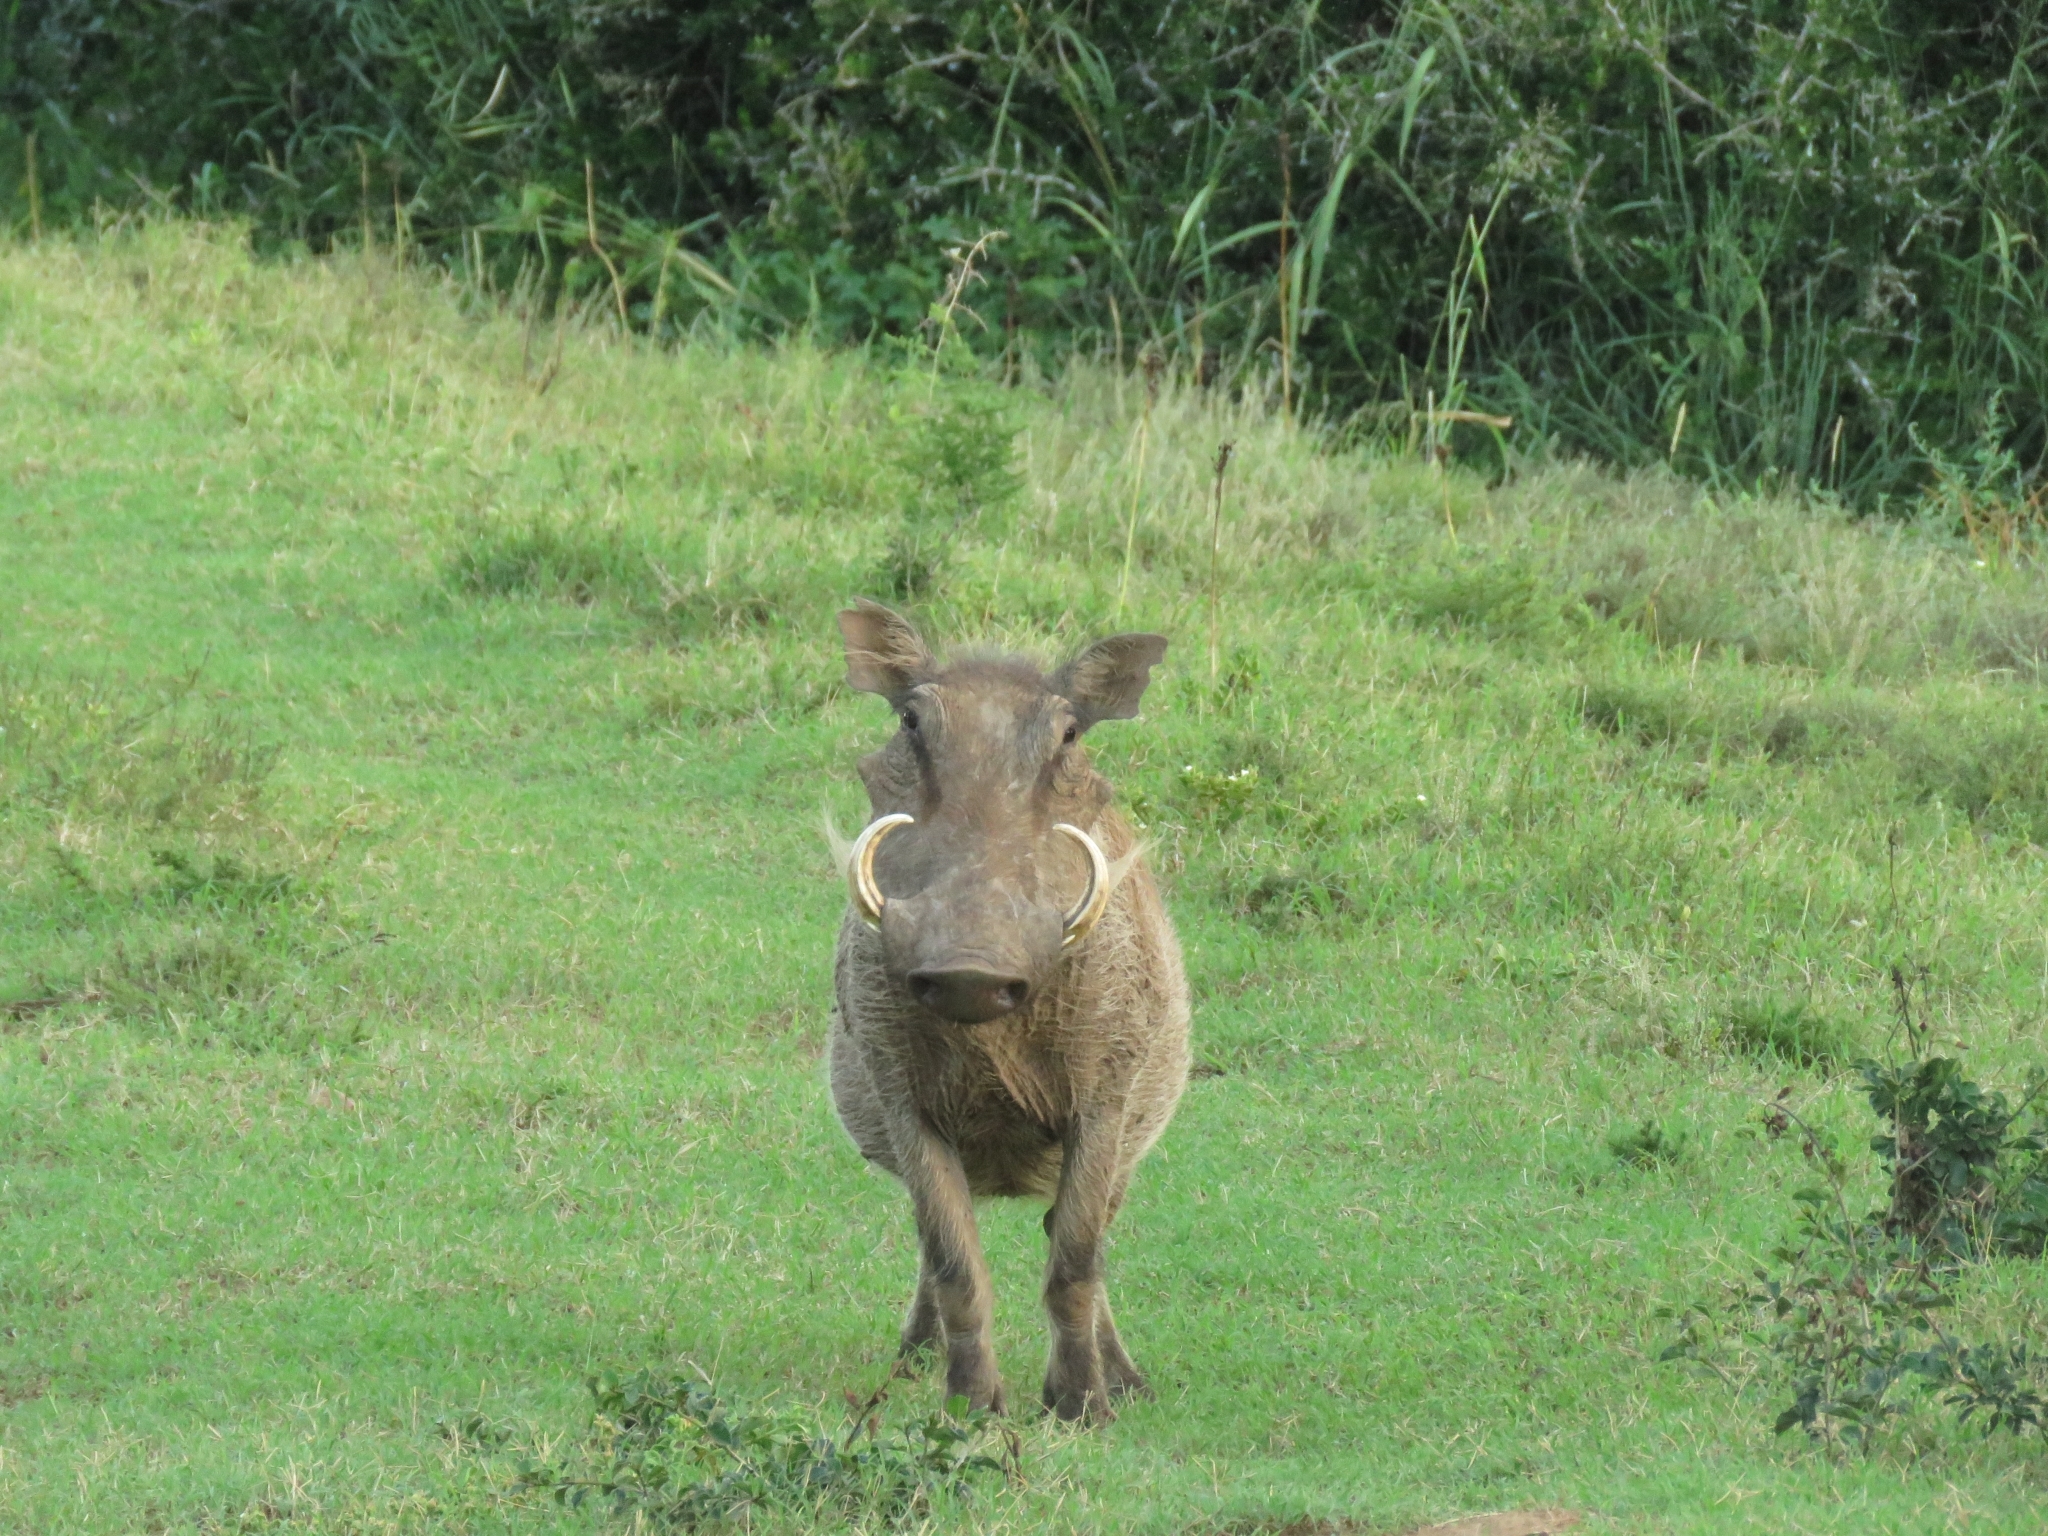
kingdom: Animalia
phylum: Chordata
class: Mammalia
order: Artiodactyla
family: Suidae
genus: Phacochoerus
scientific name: Phacochoerus africanus
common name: Common warthog
